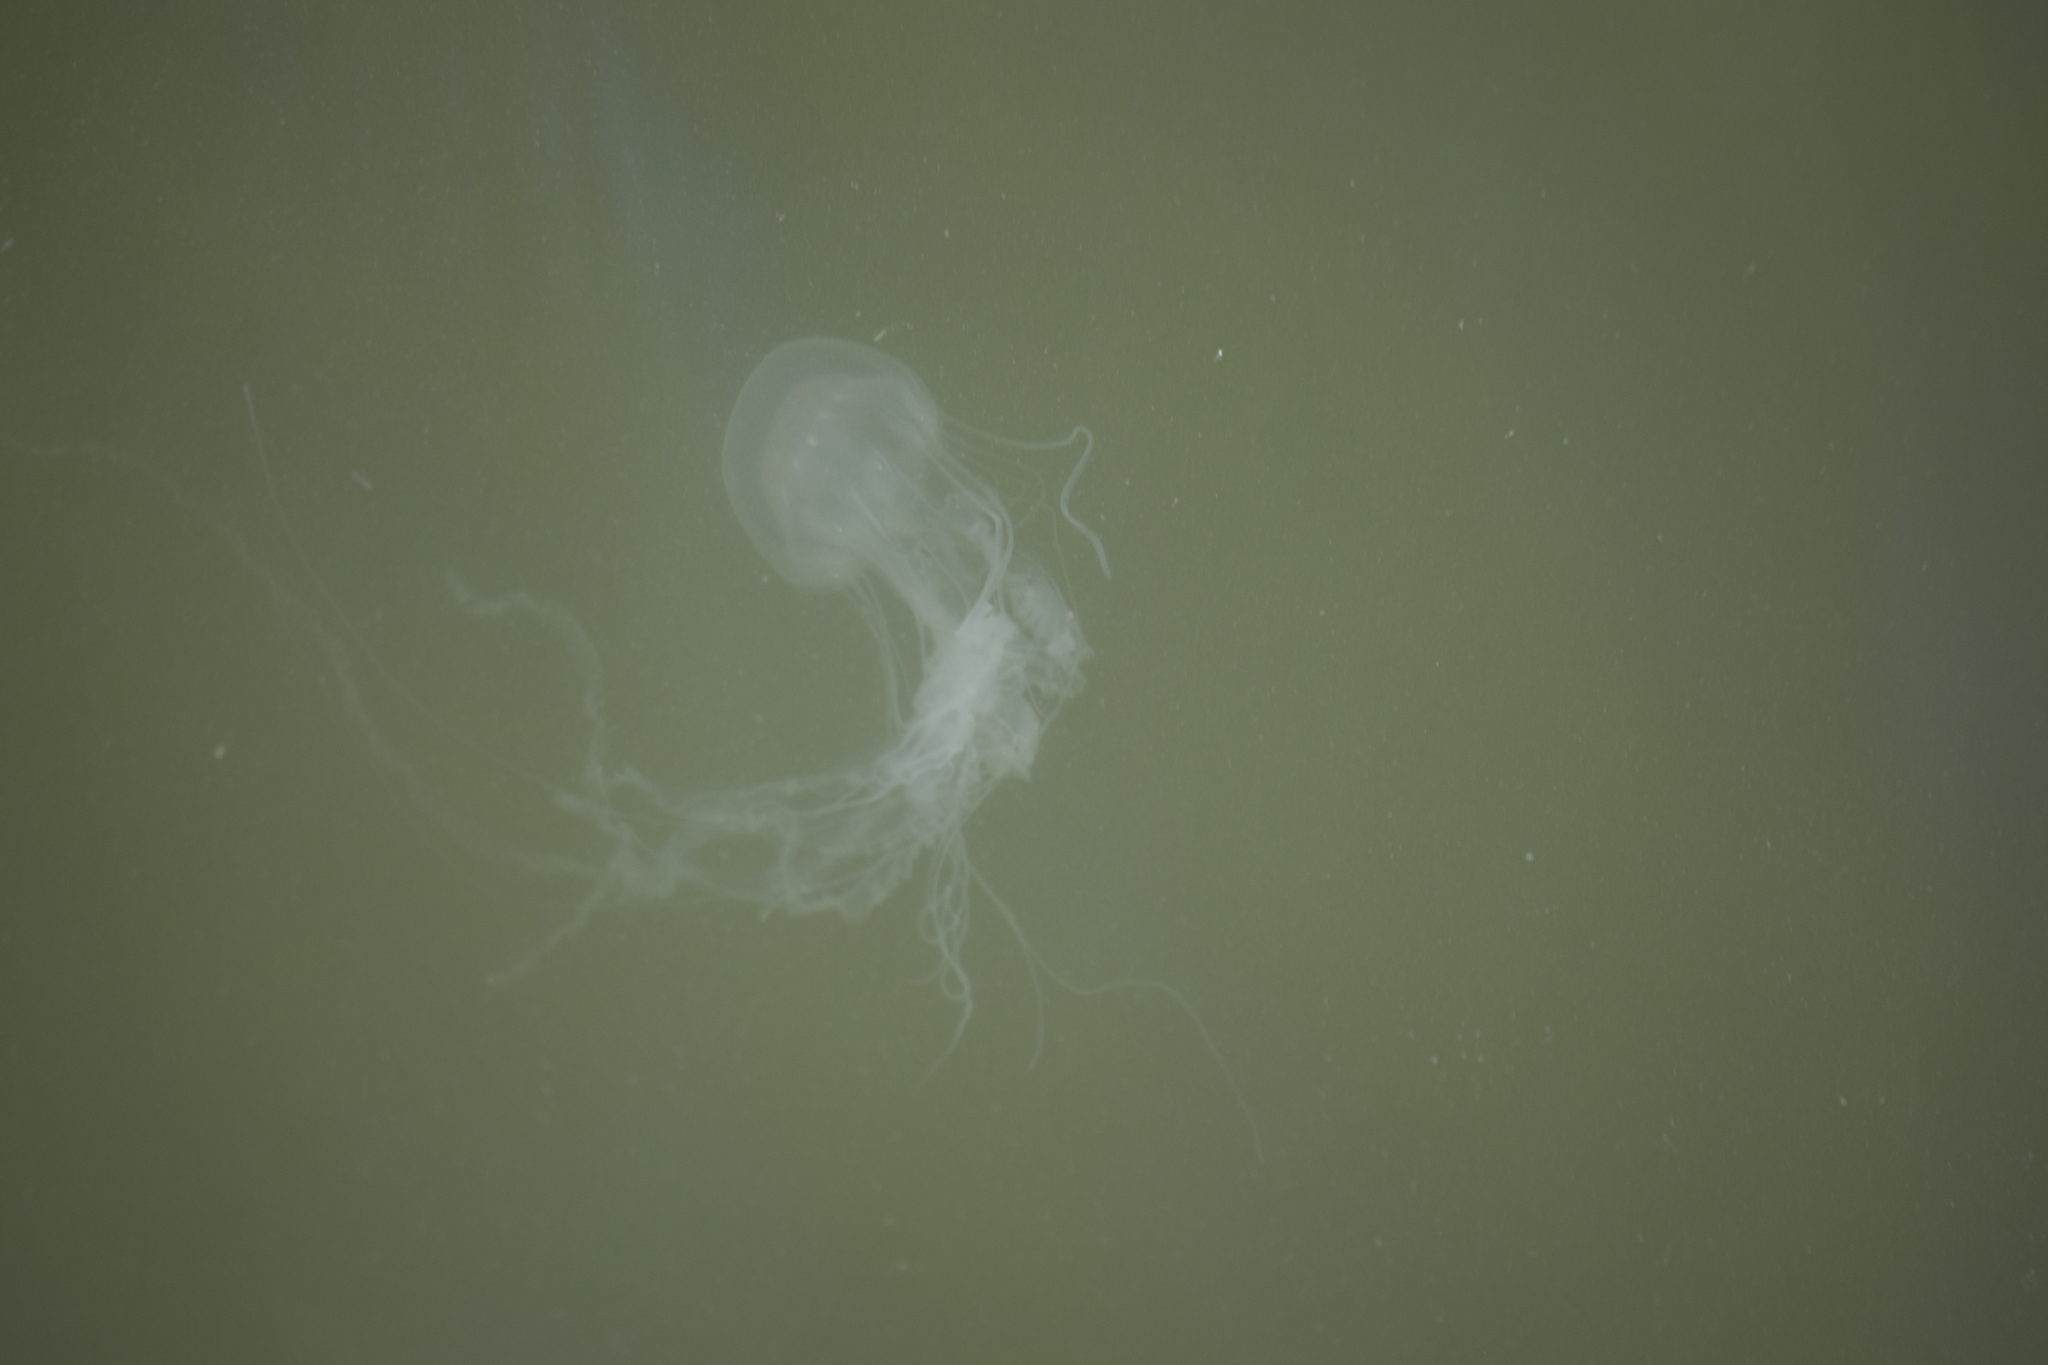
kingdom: Animalia
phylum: Cnidaria
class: Scyphozoa
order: Semaeostomeae
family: Pelagiidae
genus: Chrysaora
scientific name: Chrysaora chesapeakei
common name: Bay nettle
